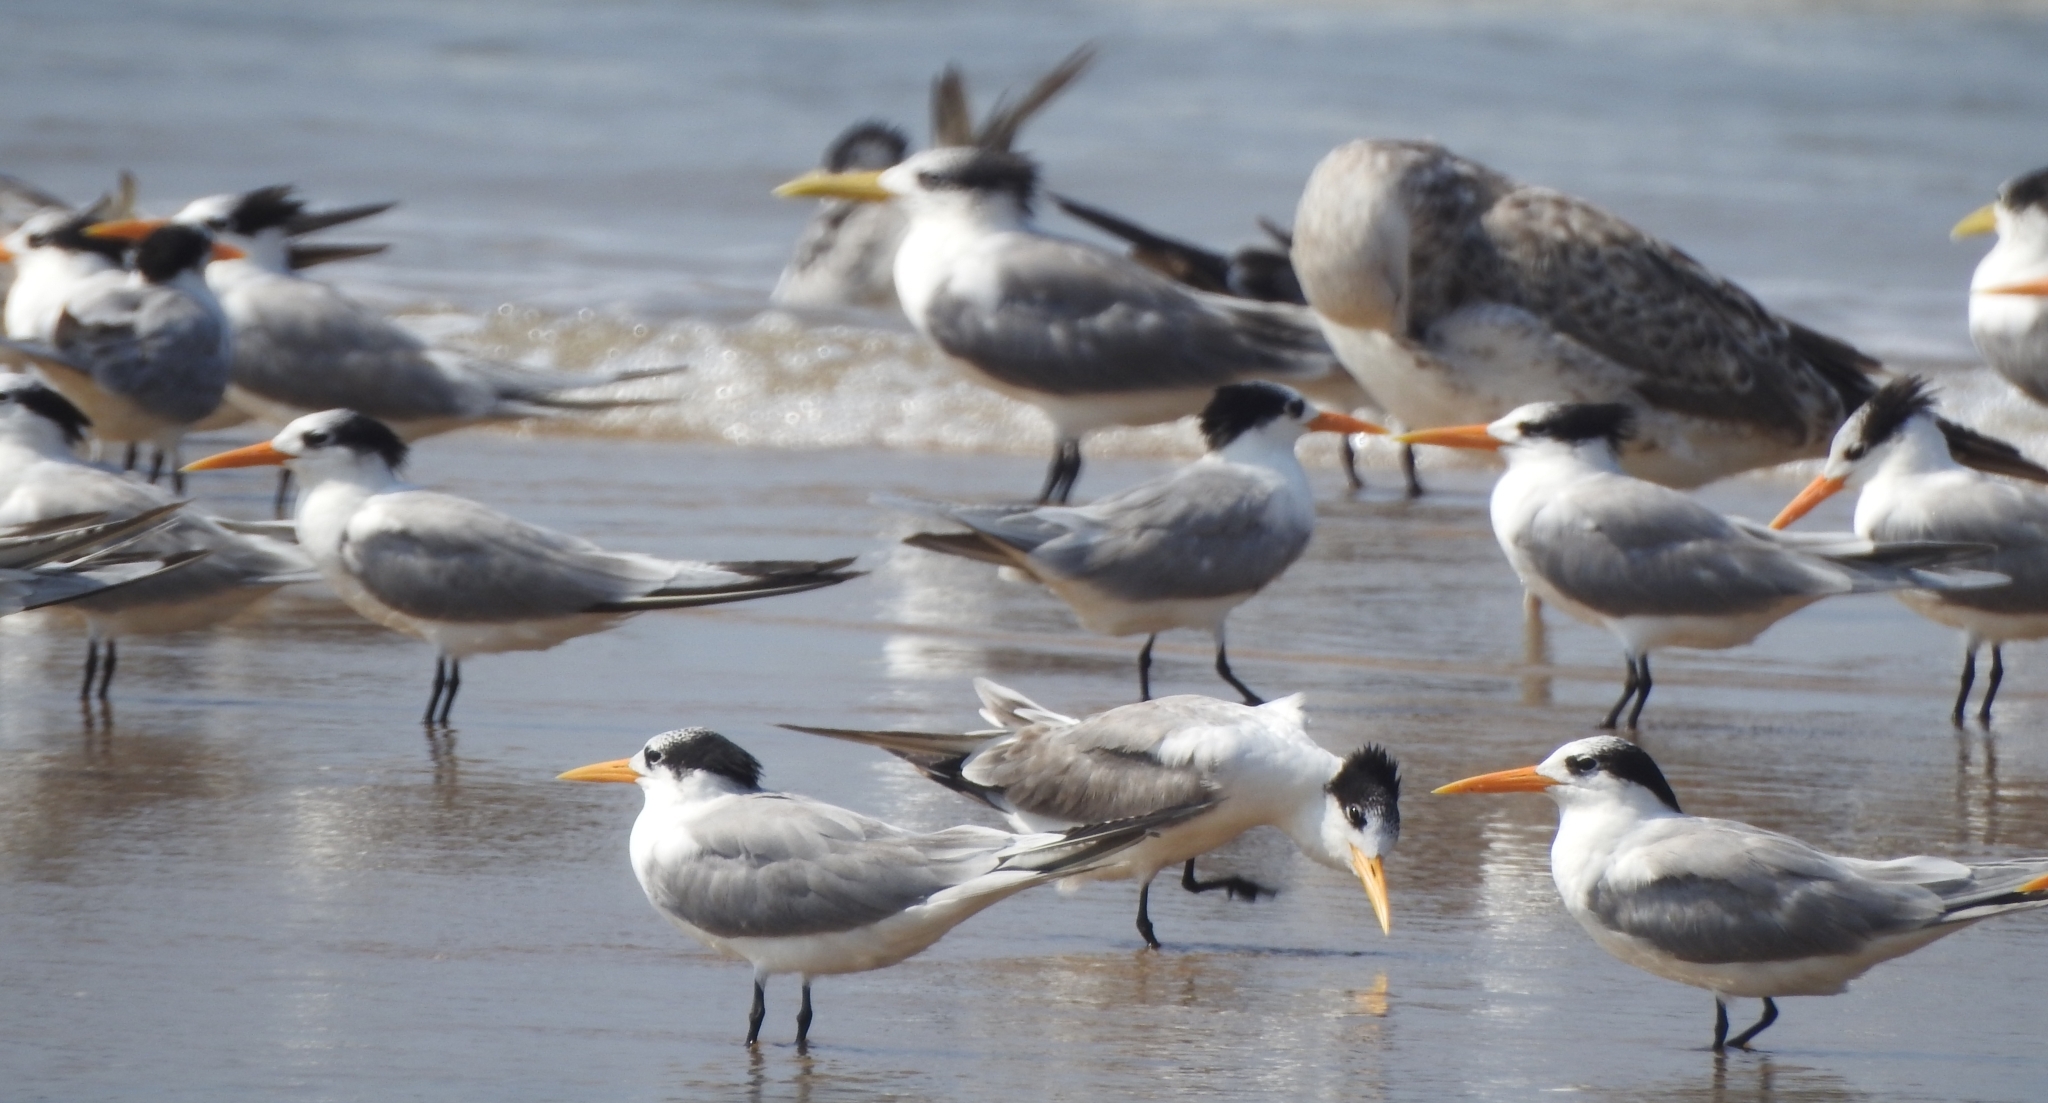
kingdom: Animalia
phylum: Chordata
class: Aves
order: Charadriiformes
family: Laridae
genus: Thalasseus
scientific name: Thalasseus bengalensis
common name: Lesser crested tern
